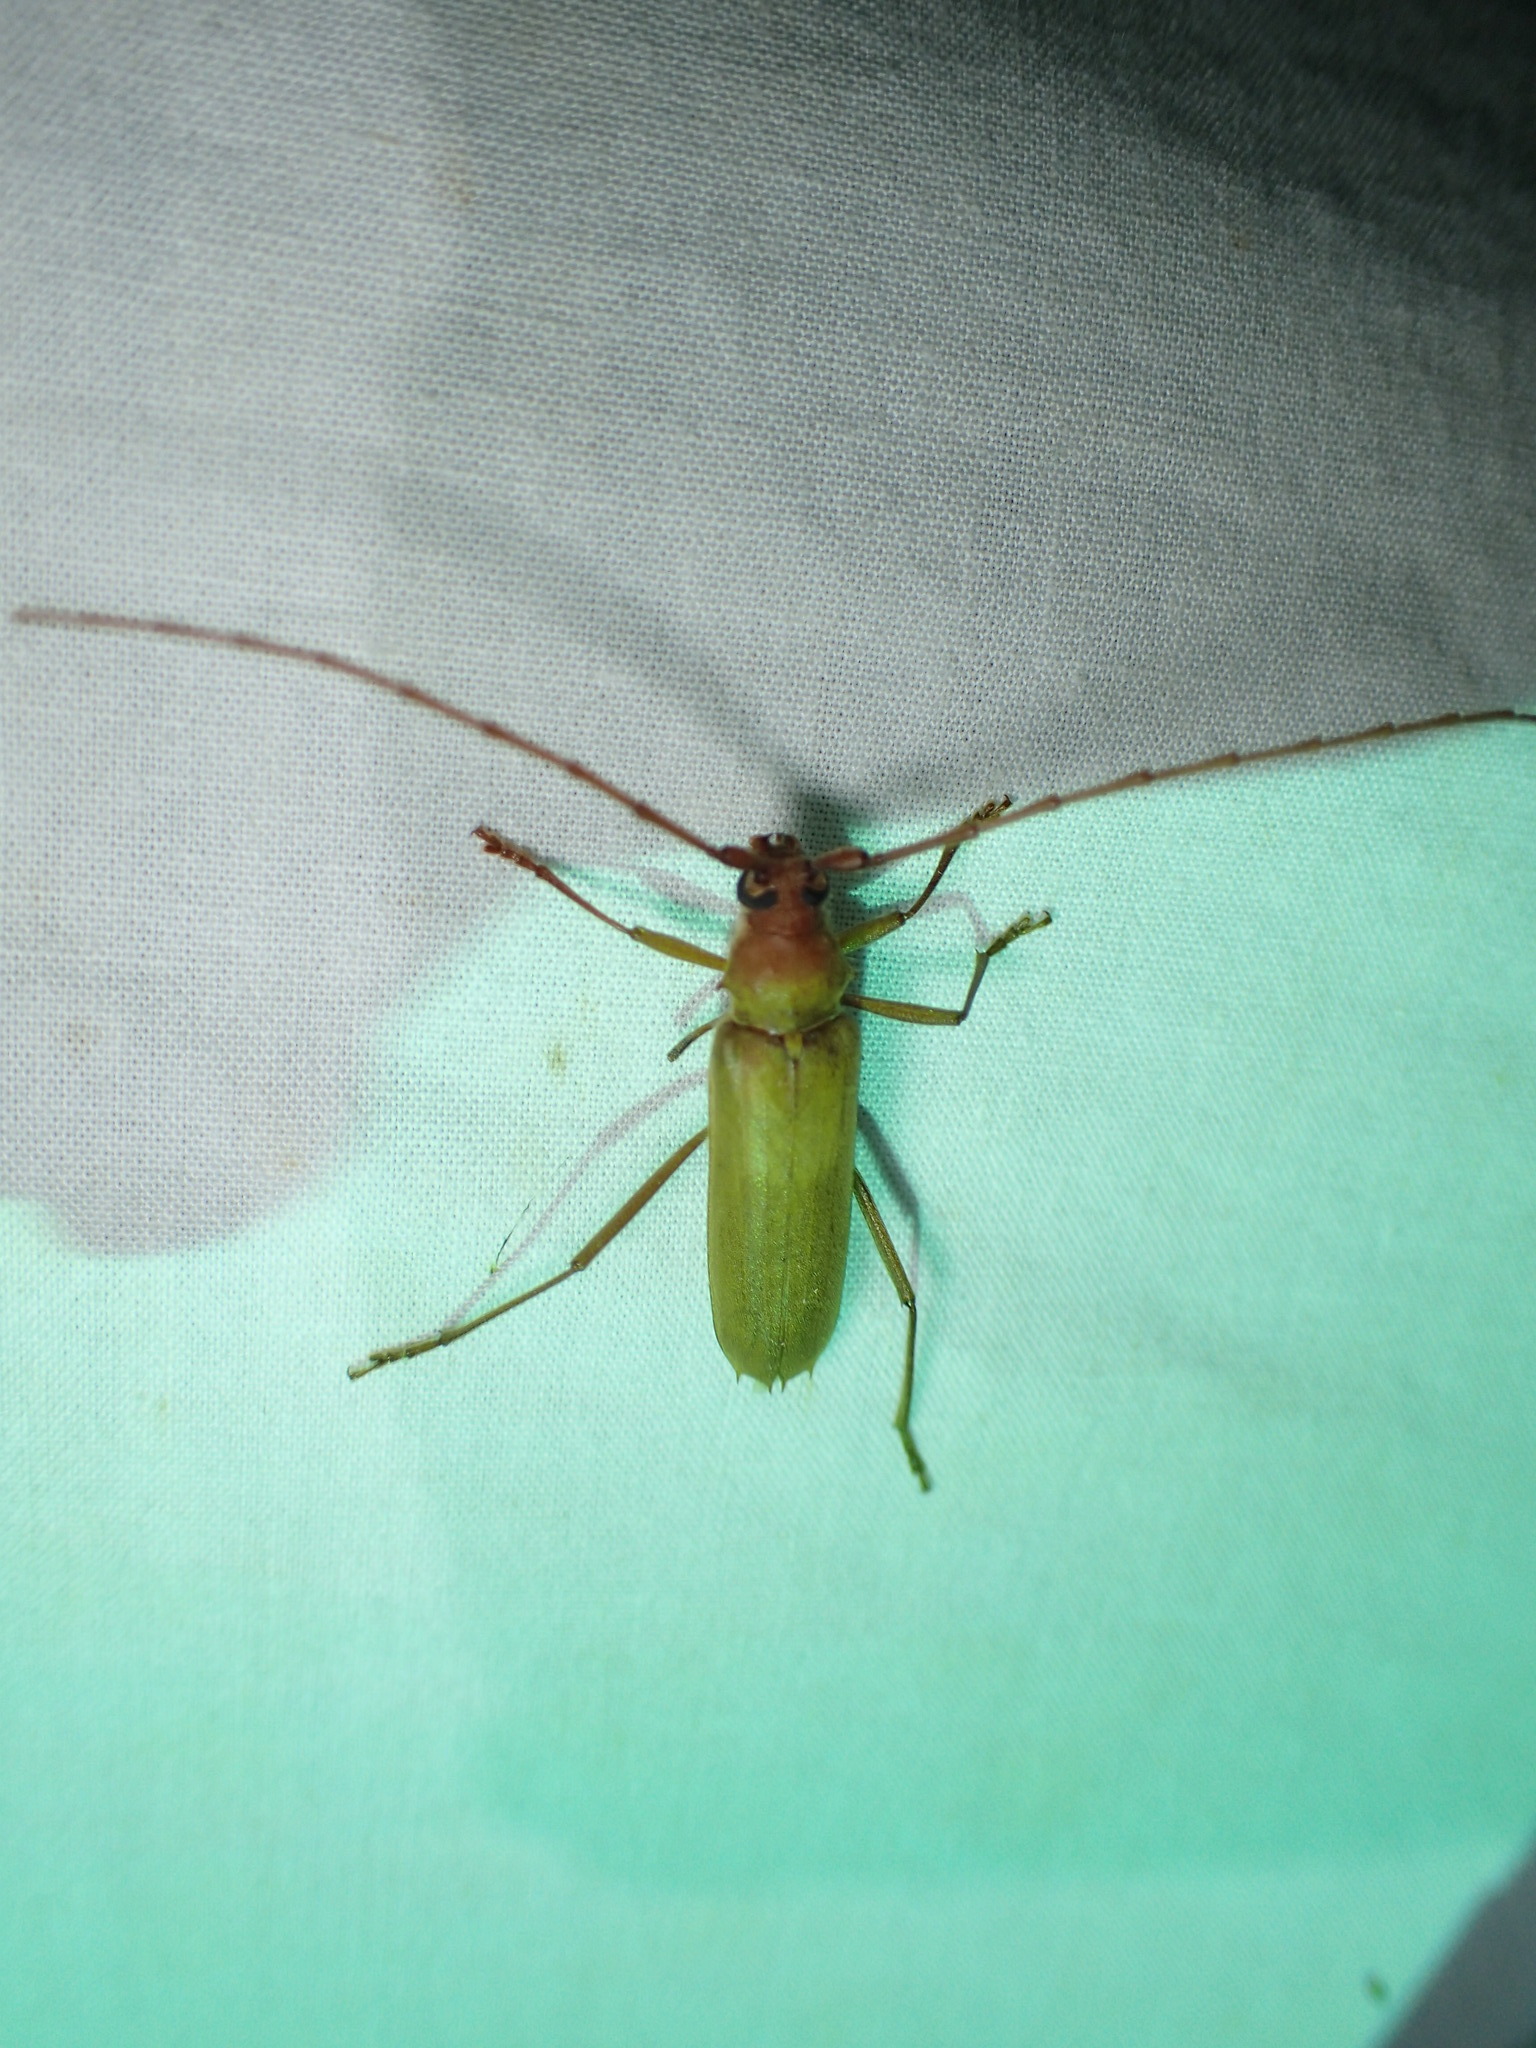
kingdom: Animalia
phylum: Arthropoda
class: Insecta
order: Coleoptera
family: Cerambycidae
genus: Knulliana
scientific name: Knulliana cincta
